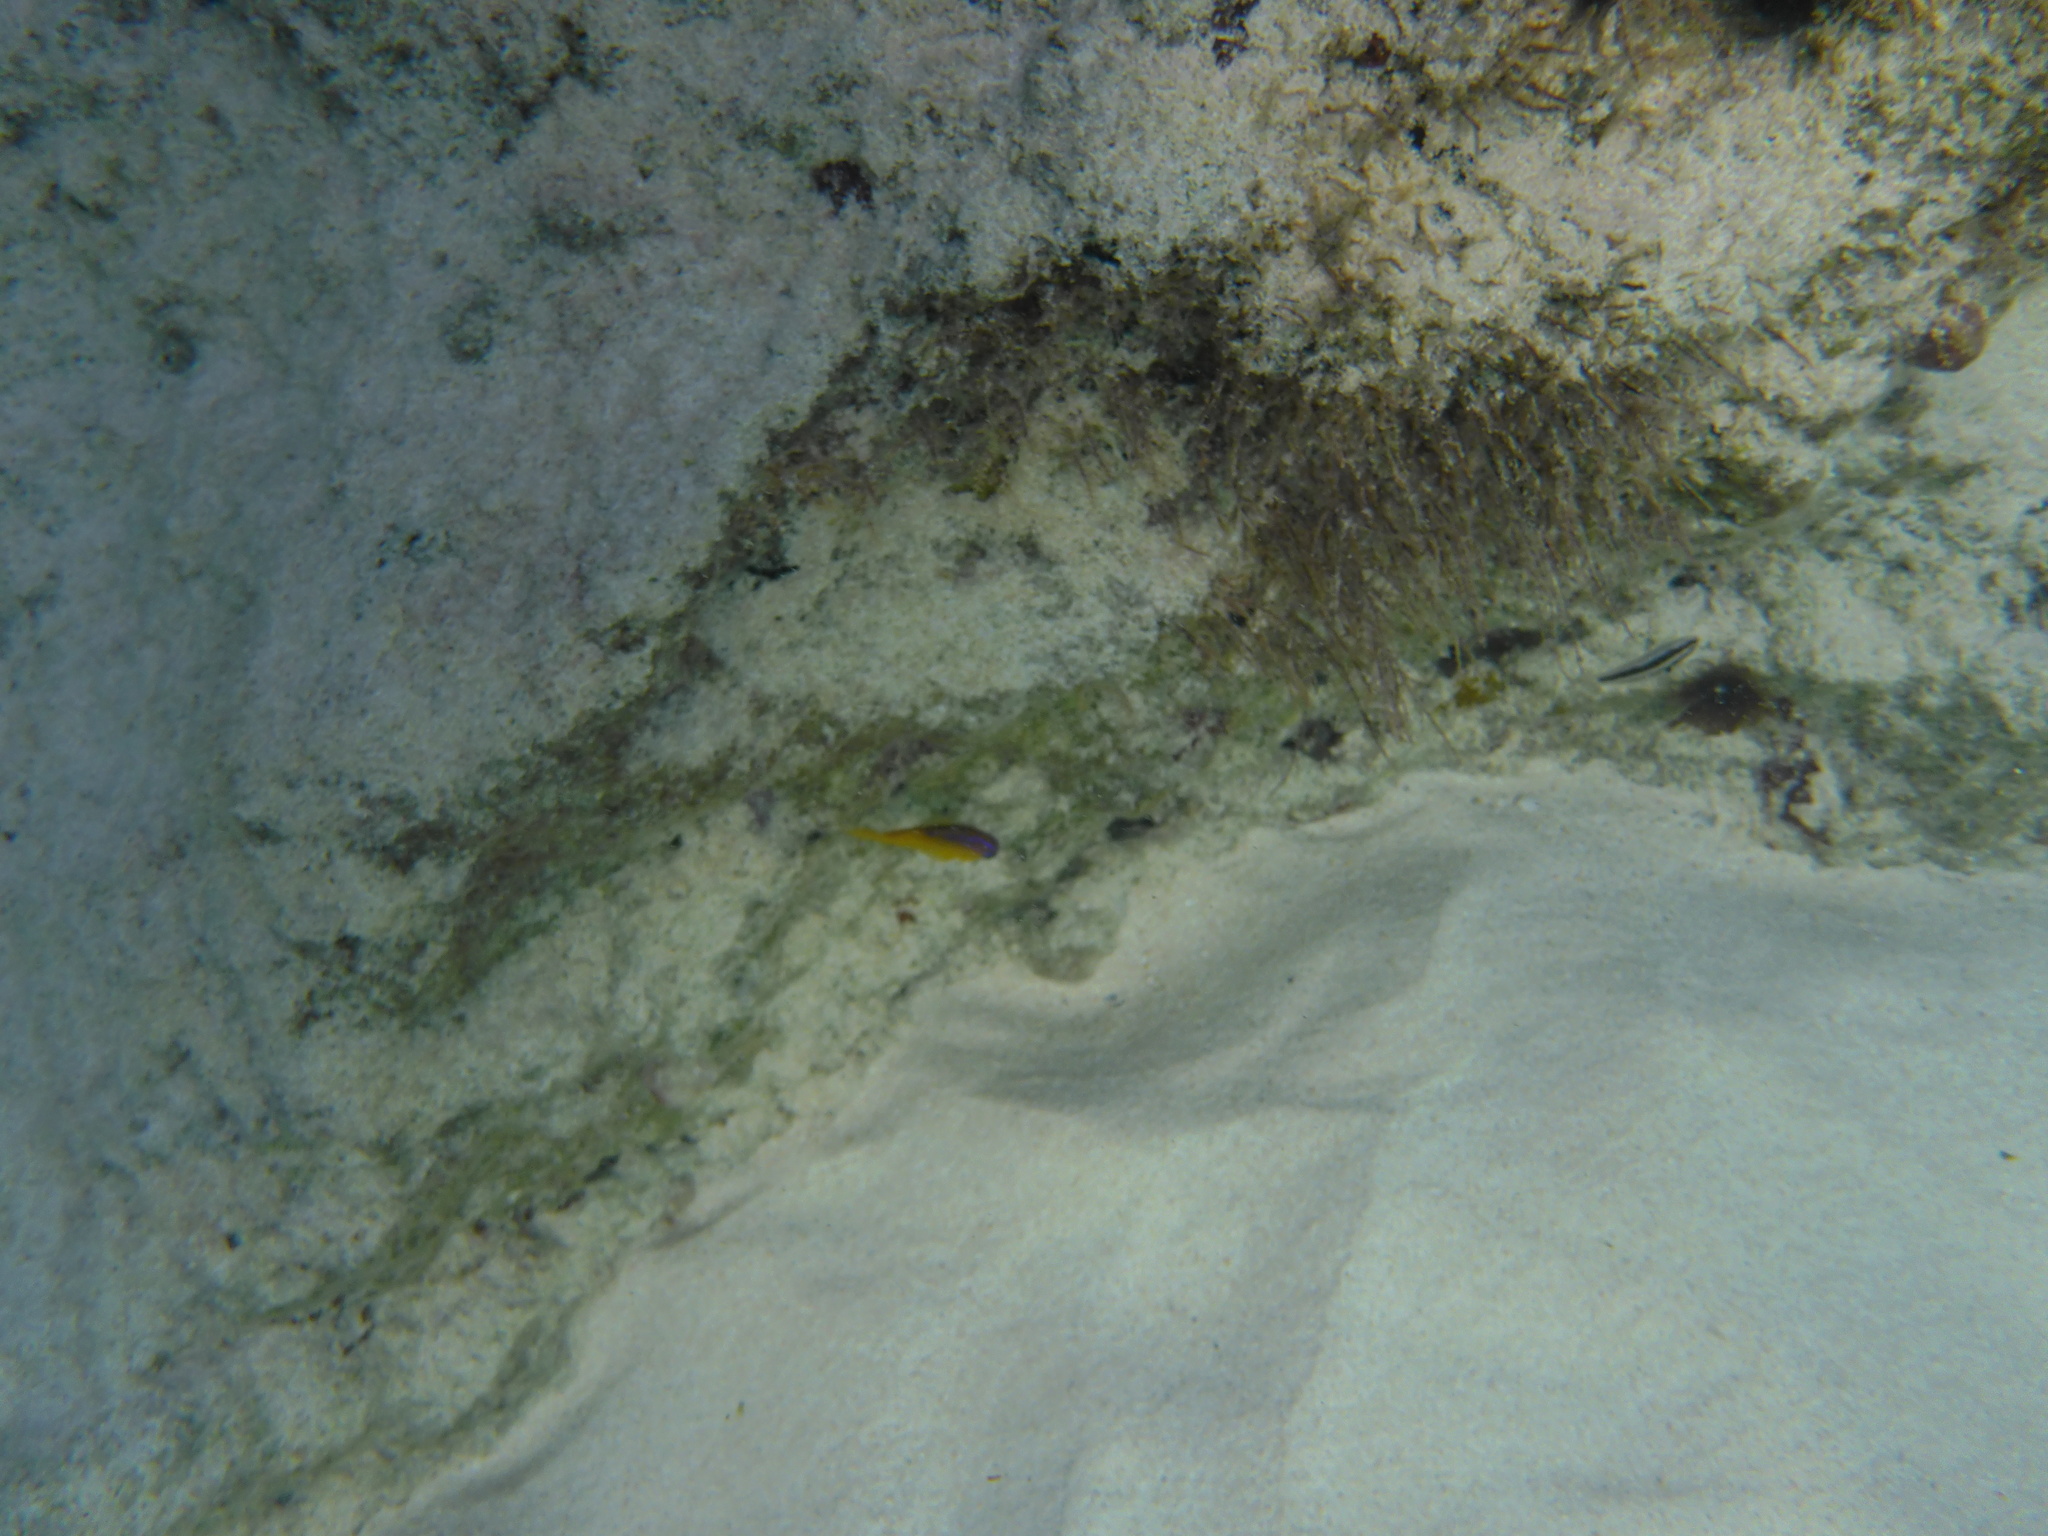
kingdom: Animalia
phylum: Chordata
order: Perciformes
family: Pomacentridae
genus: Stegastes
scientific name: Stegastes leucostictus
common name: Beaugregory
